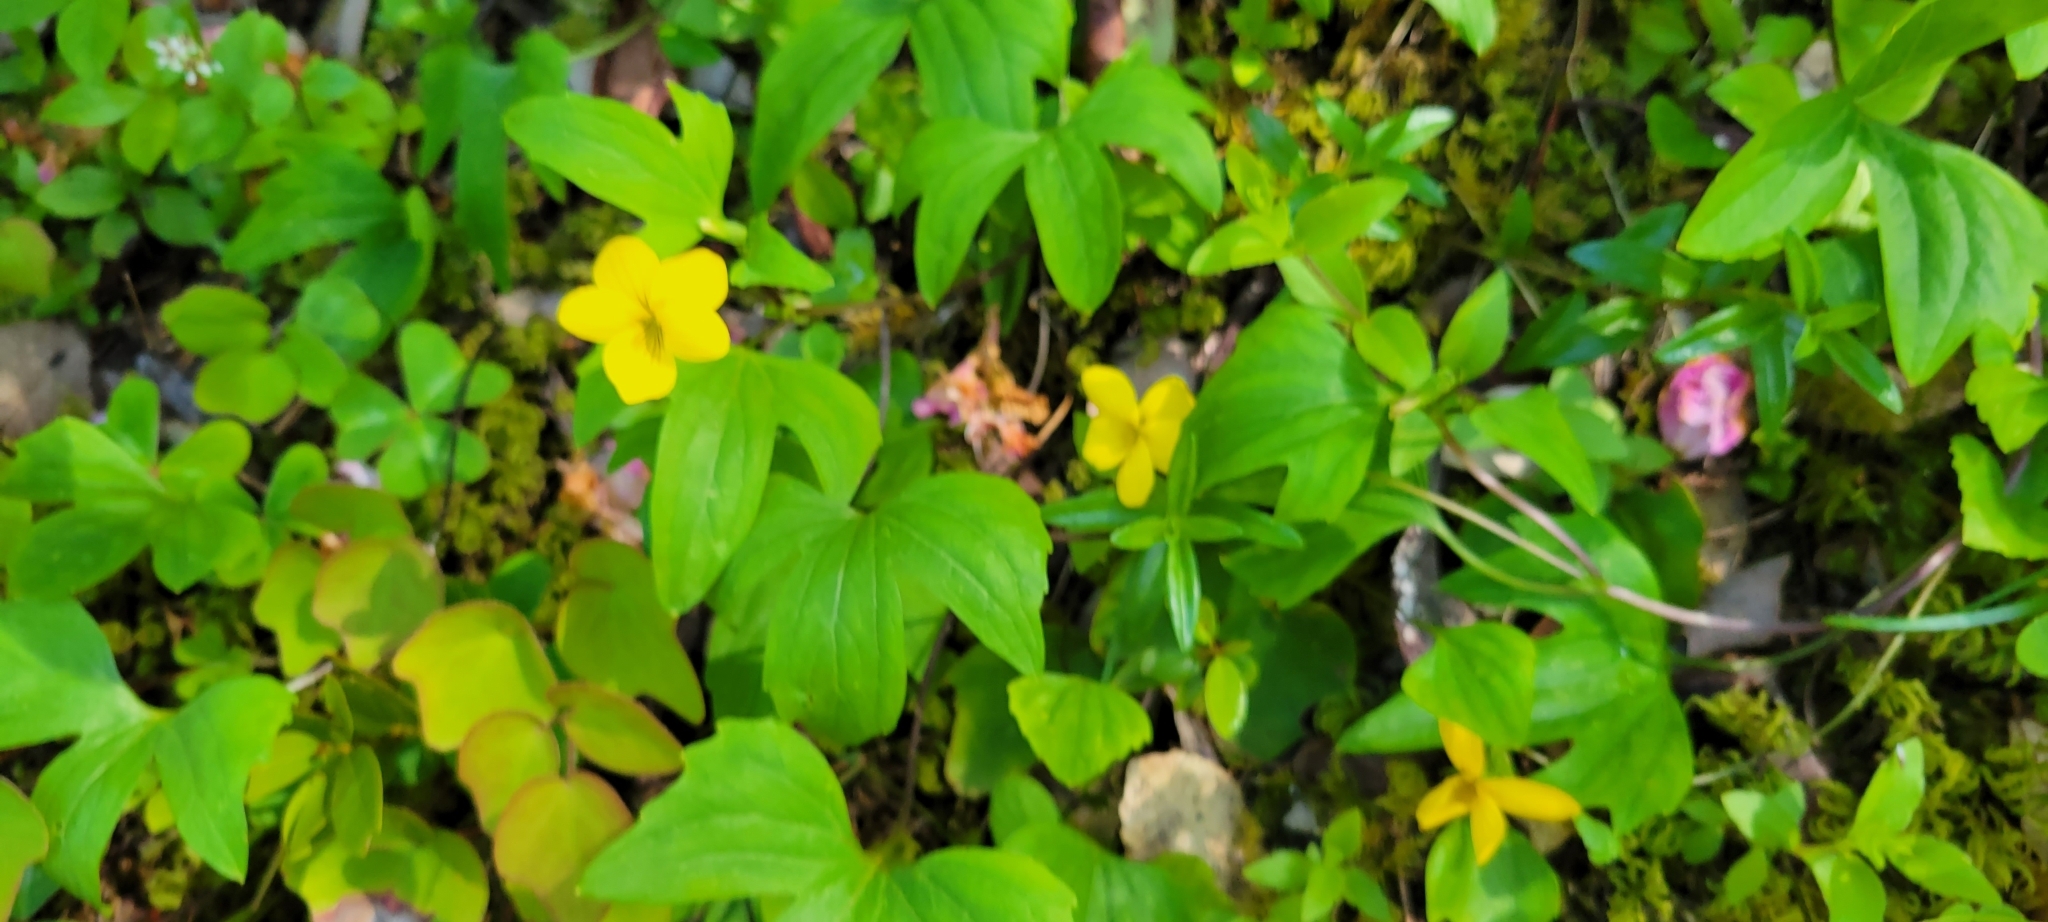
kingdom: Plantae
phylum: Tracheophyta
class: Magnoliopsida
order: Malpighiales
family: Violaceae
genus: Viola
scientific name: Viola lobata
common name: Pine violet
